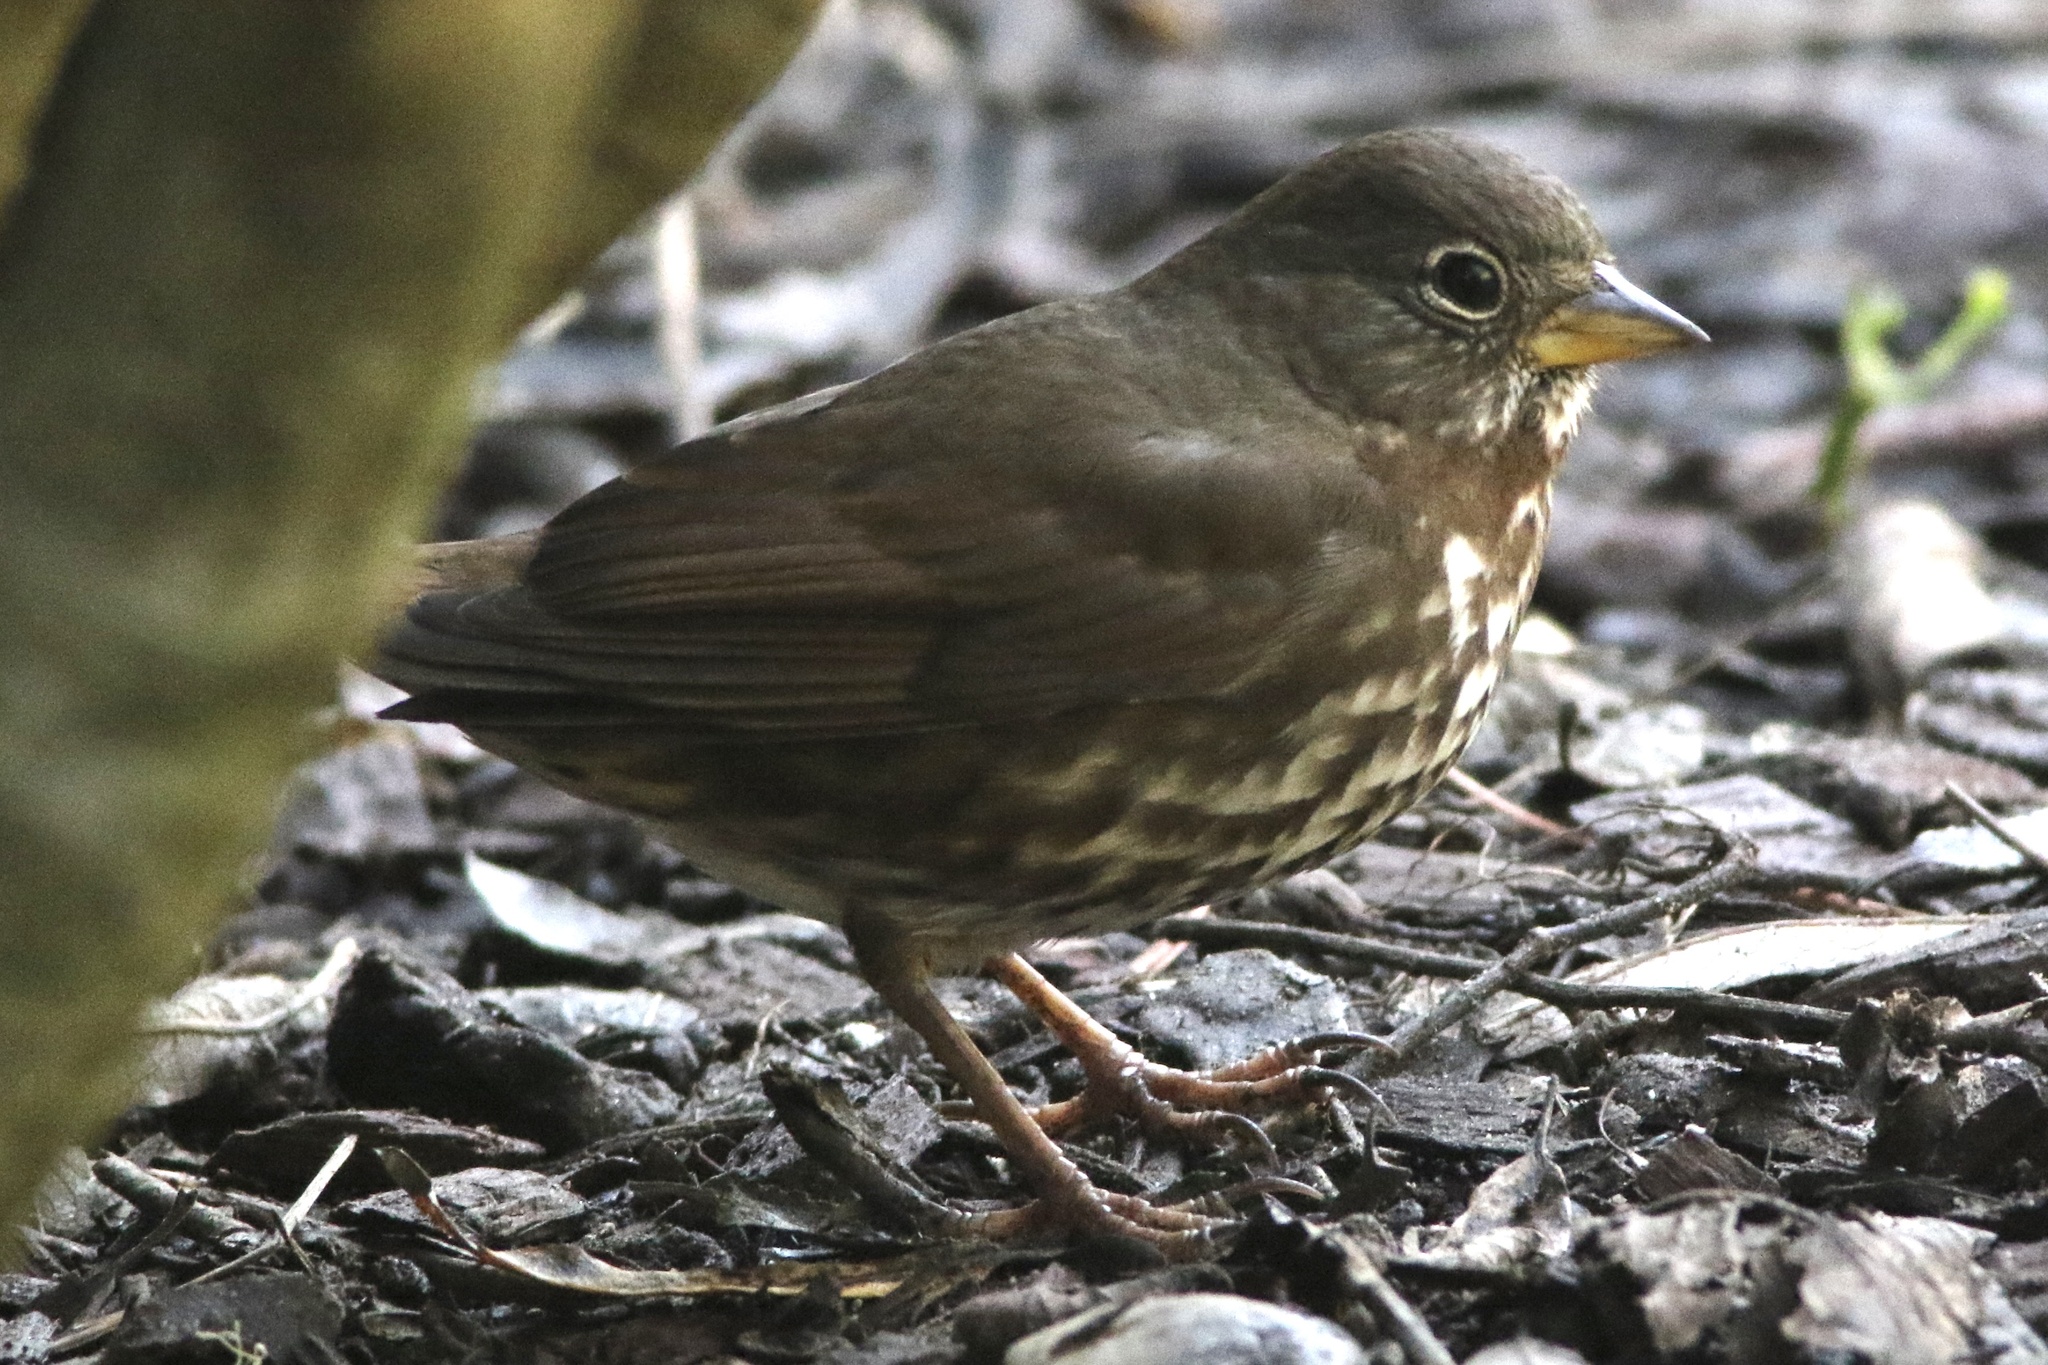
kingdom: Animalia
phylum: Chordata
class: Aves
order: Passeriformes
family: Passerellidae
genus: Passerella
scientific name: Passerella iliaca
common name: Fox sparrow
